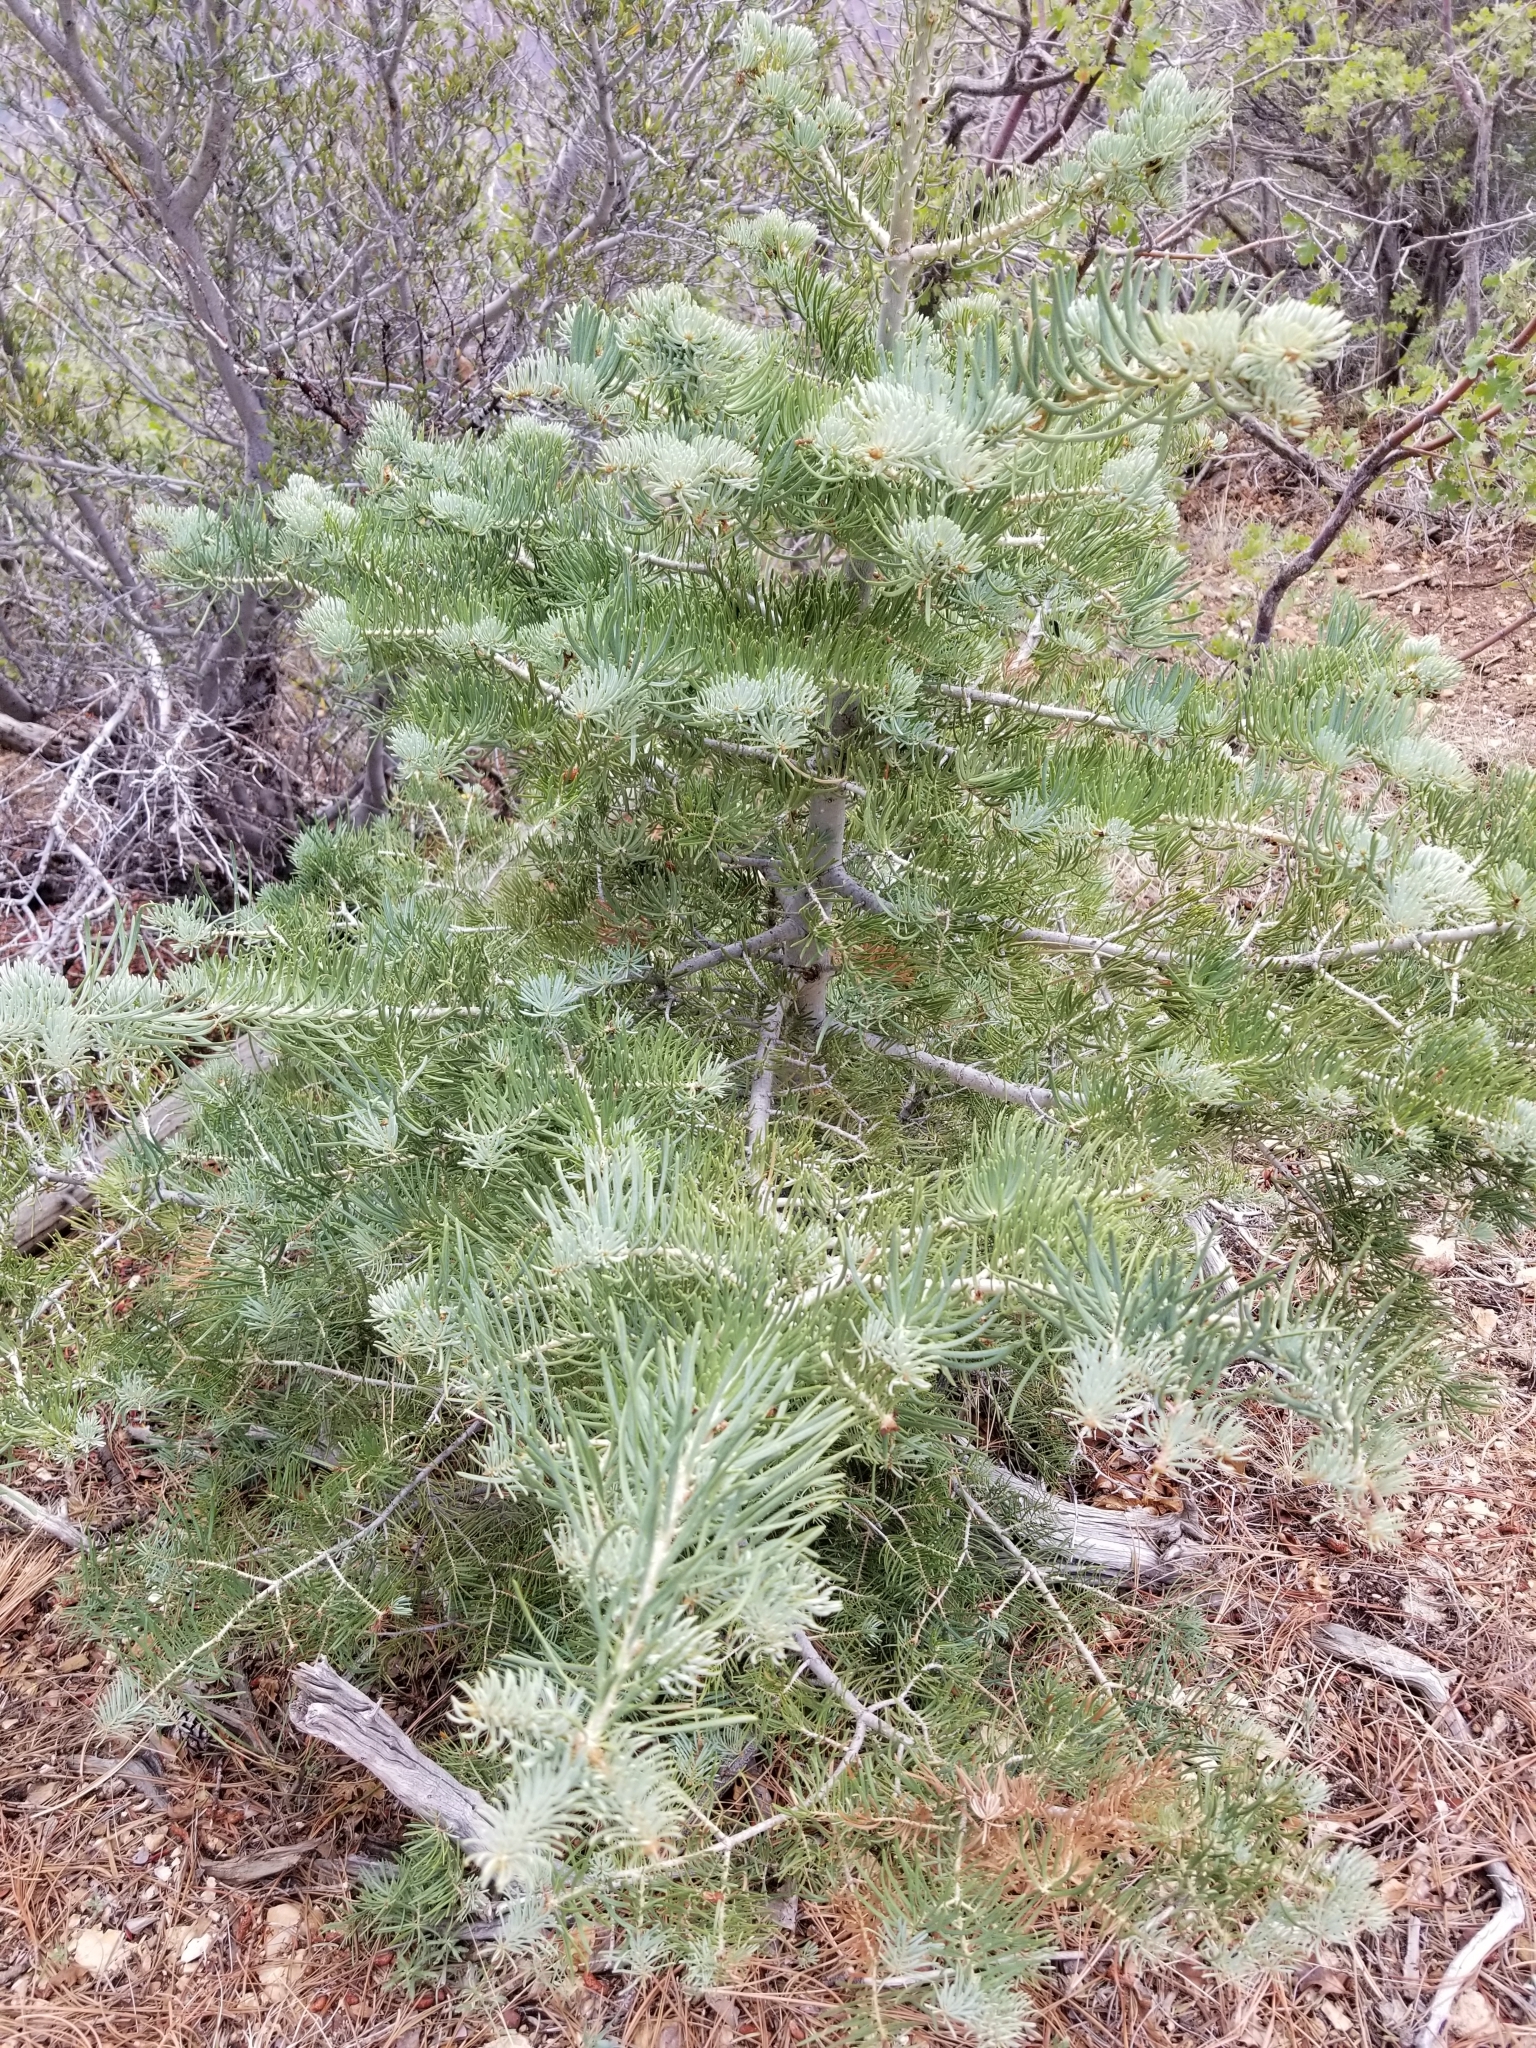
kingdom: Plantae
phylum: Tracheophyta
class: Pinopsida
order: Pinales
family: Pinaceae
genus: Abies
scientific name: Abies concolor
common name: Colorado fir
